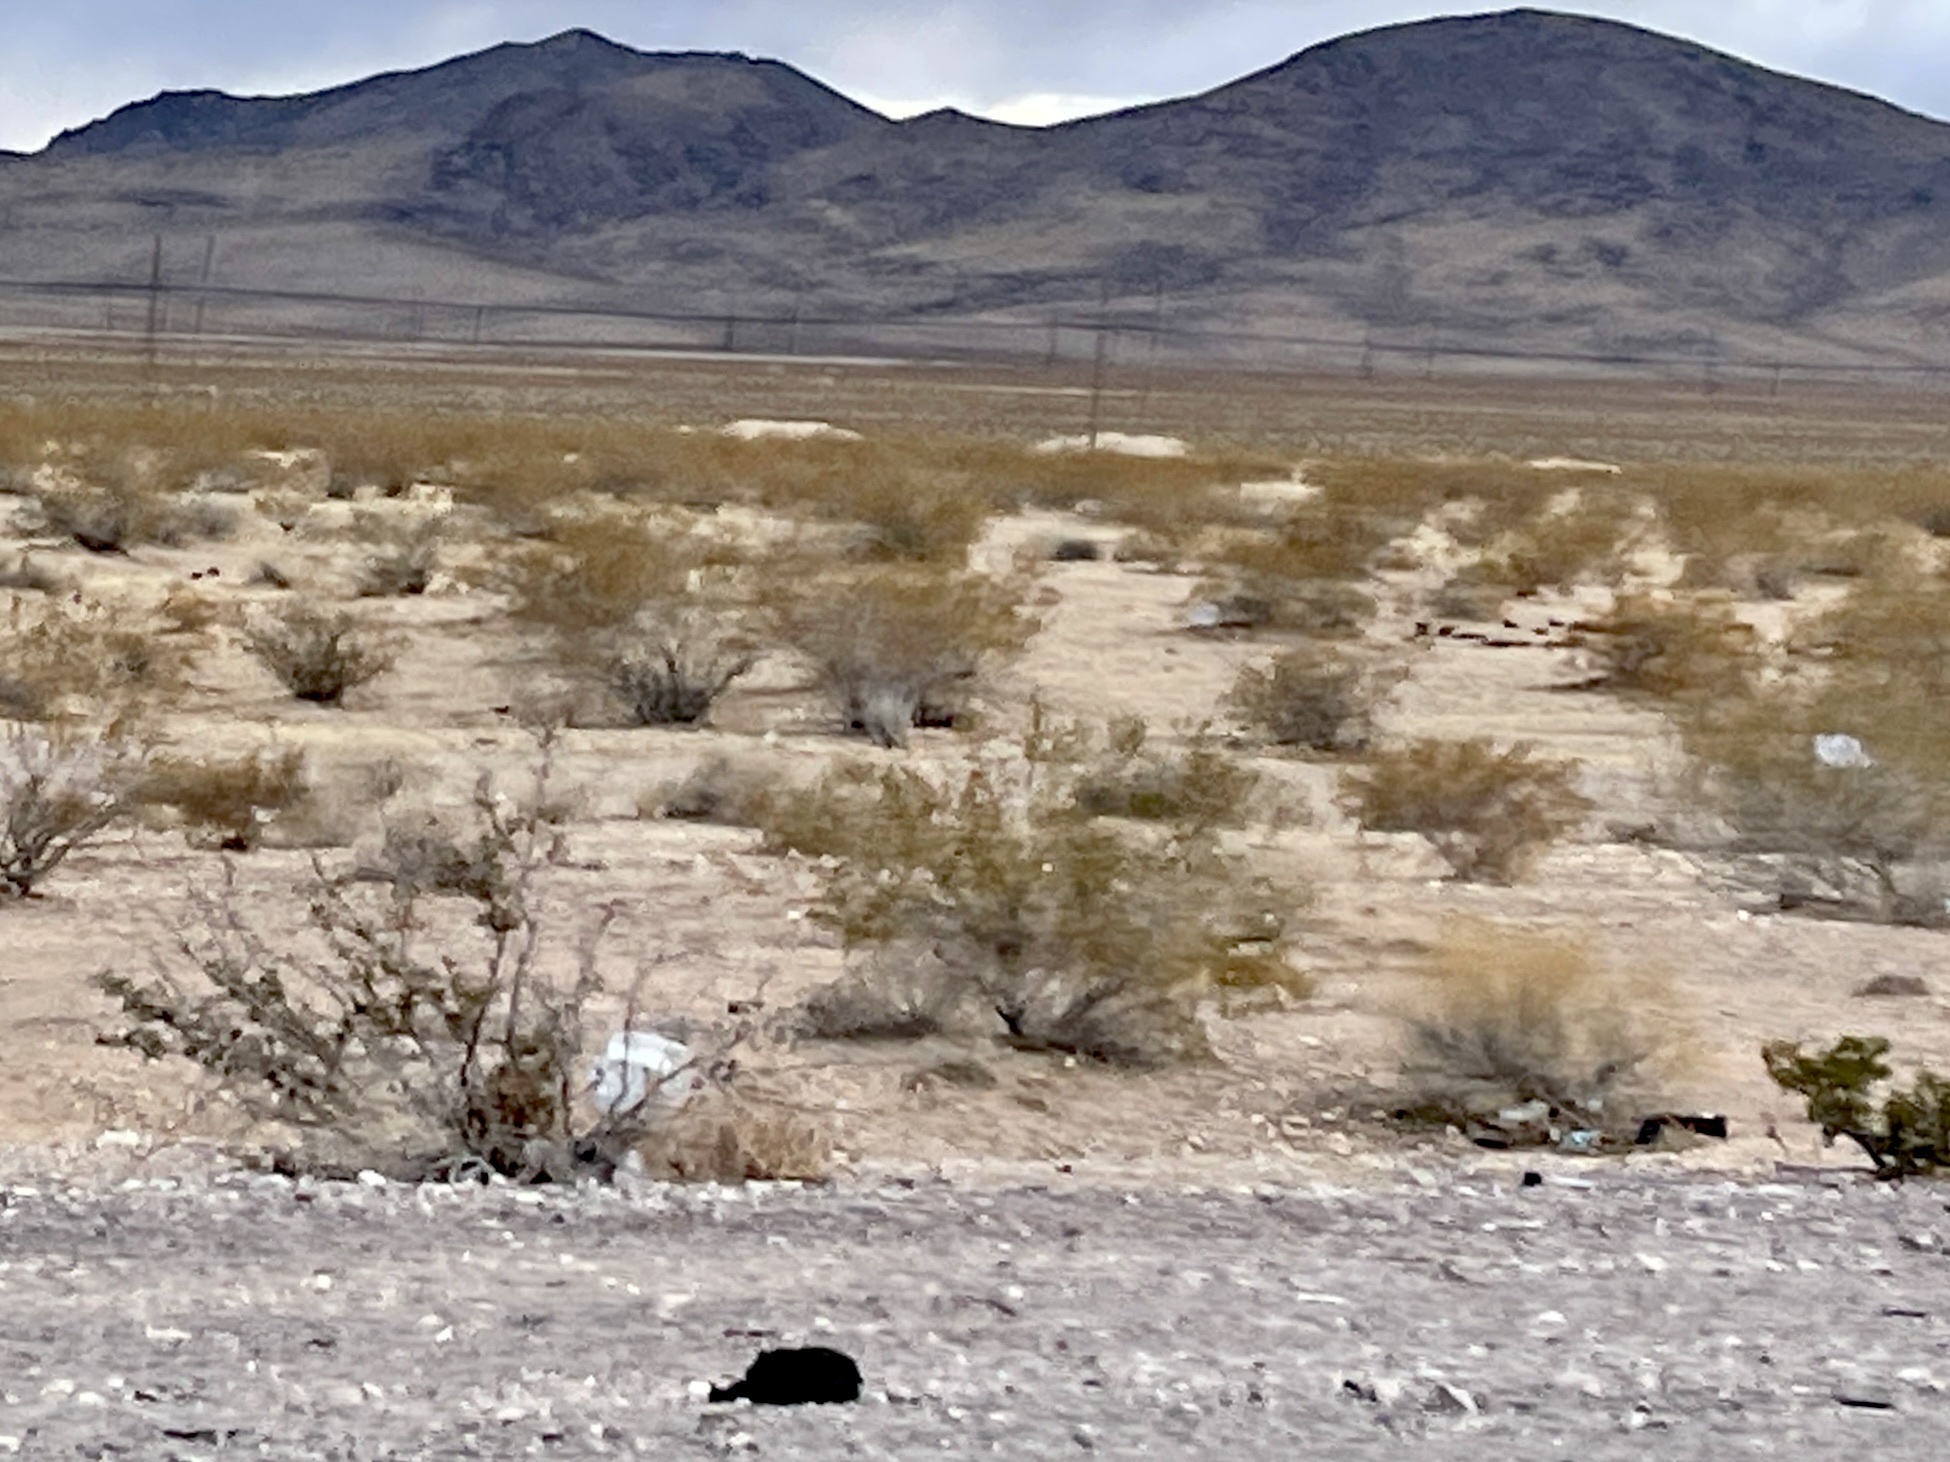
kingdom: Plantae
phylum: Tracheophyta
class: Magnoliopsida
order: Zygophyllales
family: Zygophyllaceae
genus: Larrea
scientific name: Larrea tridentata
